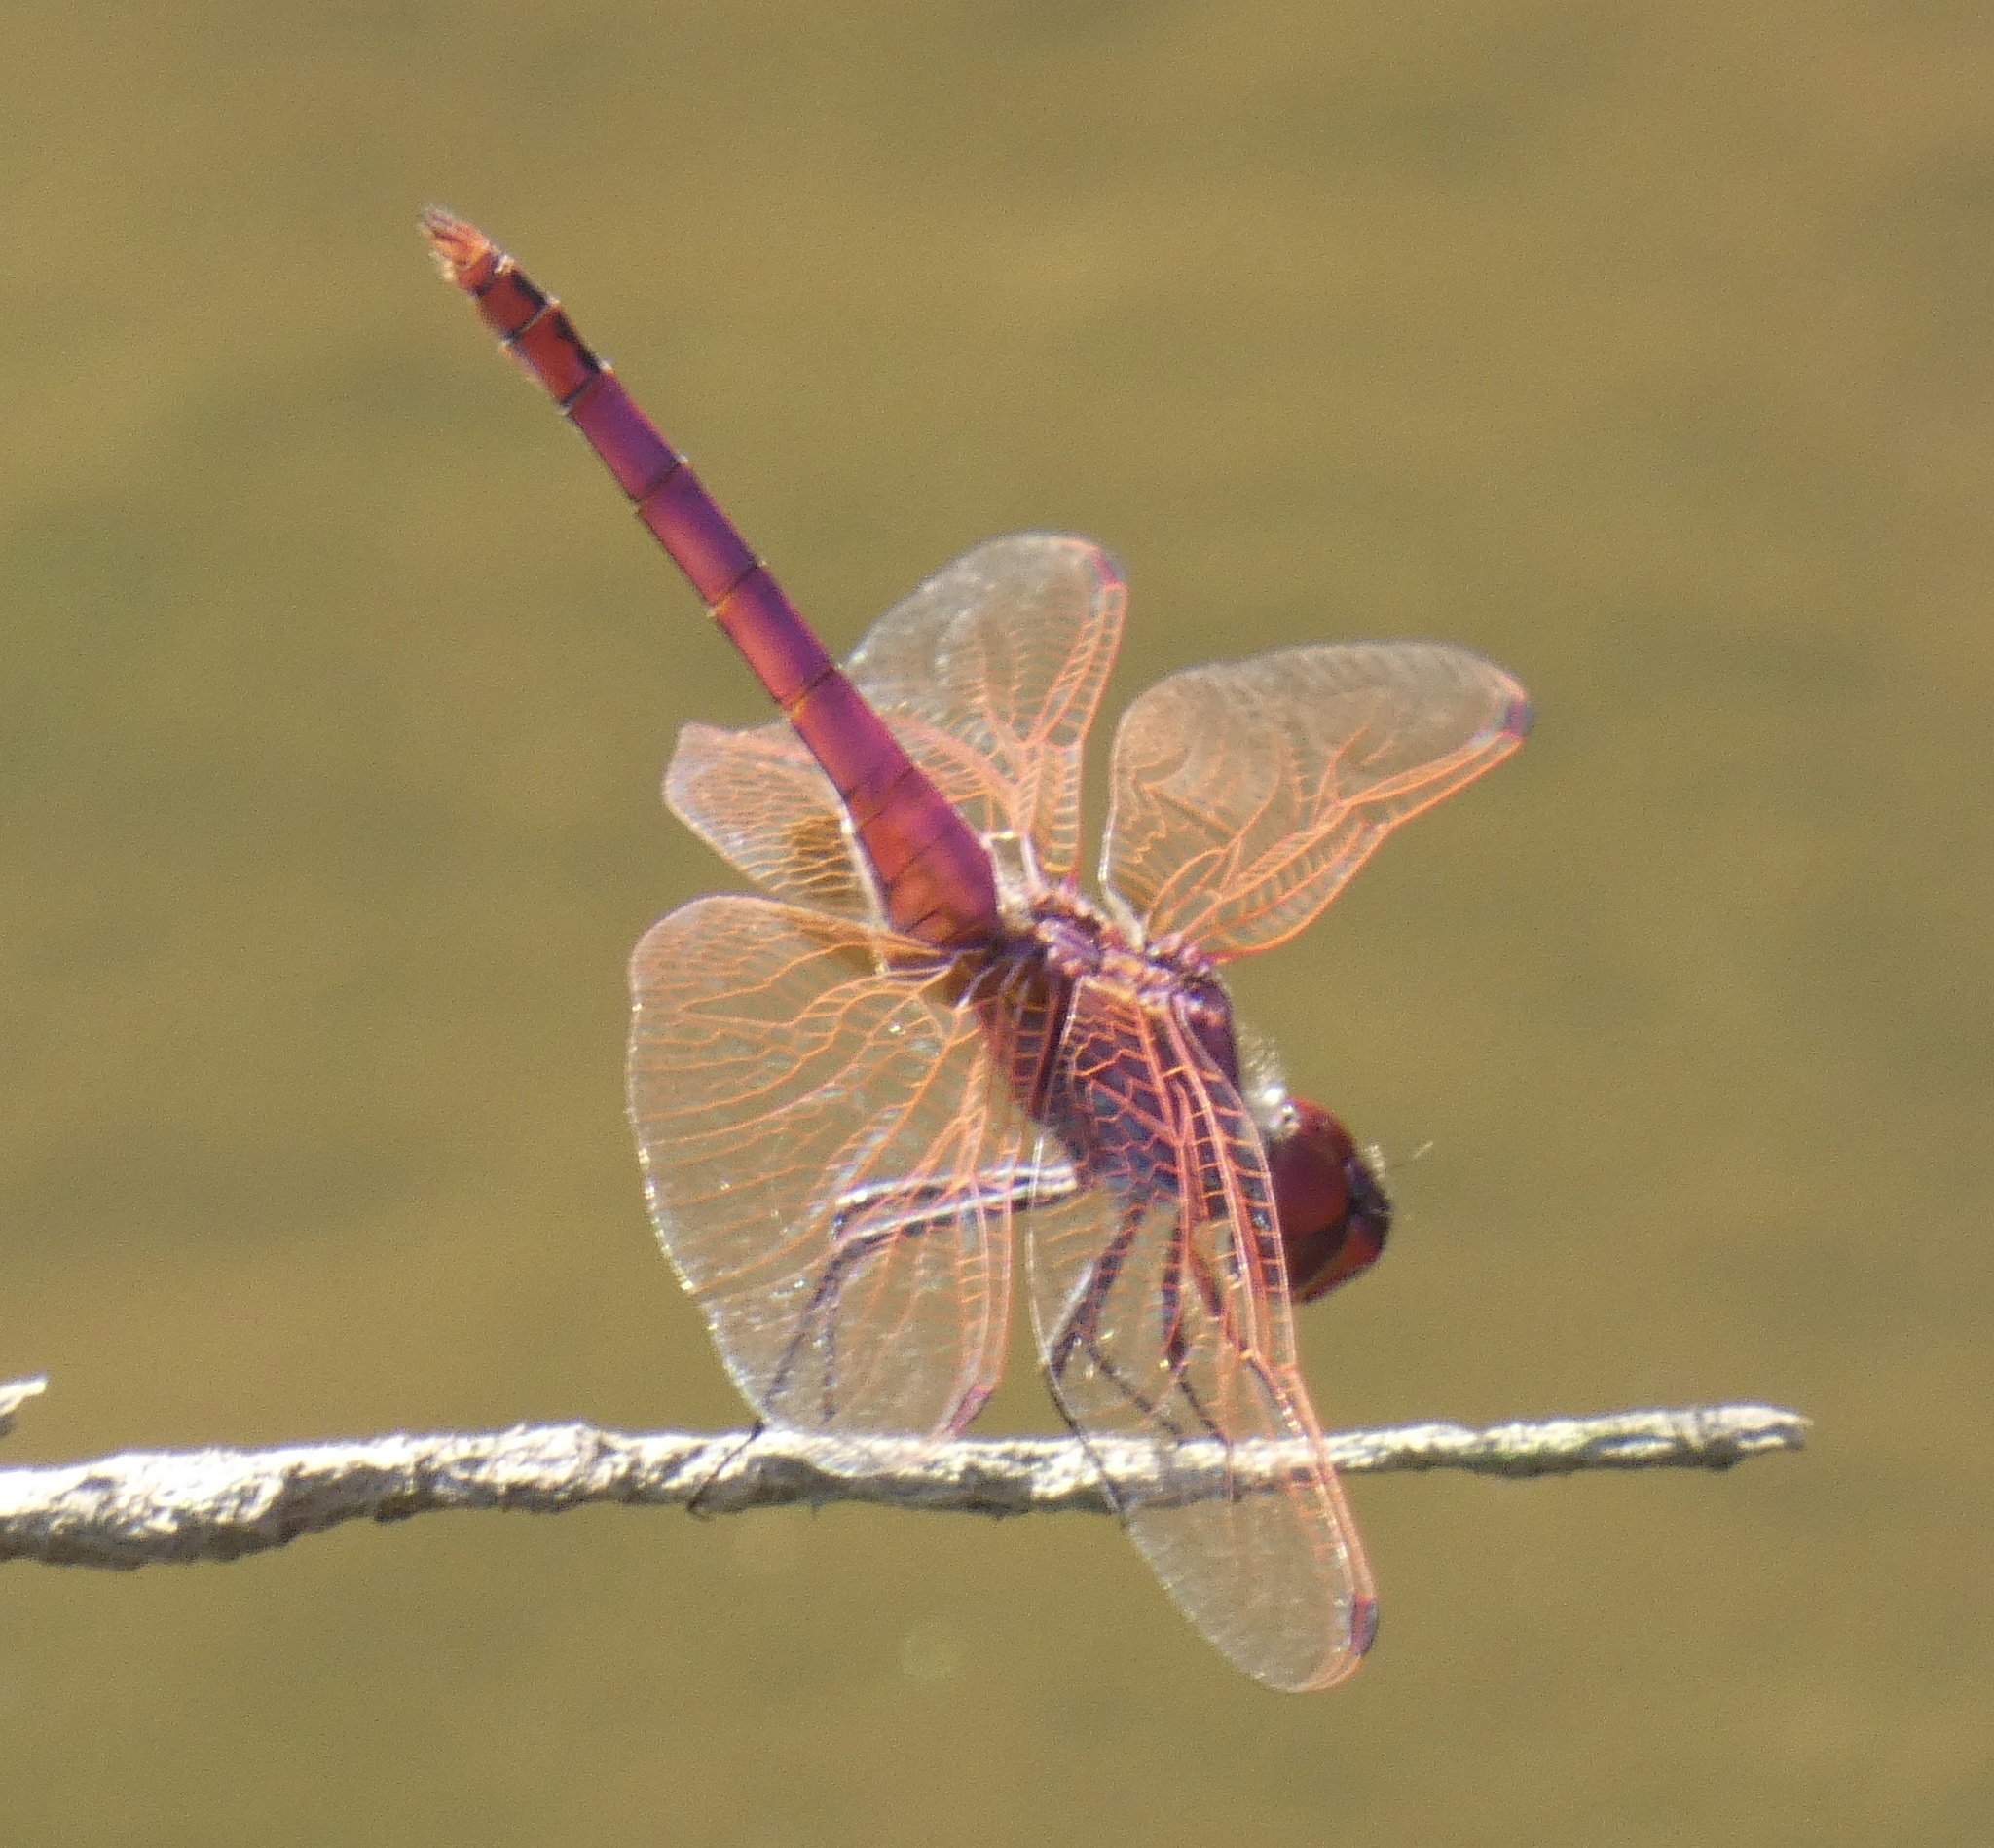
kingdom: Animalia
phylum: Arthropoda
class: Insecta
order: Odonata
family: Libellulidae
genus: Trithemis
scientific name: Trithemis annulata
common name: Violet dropwing
